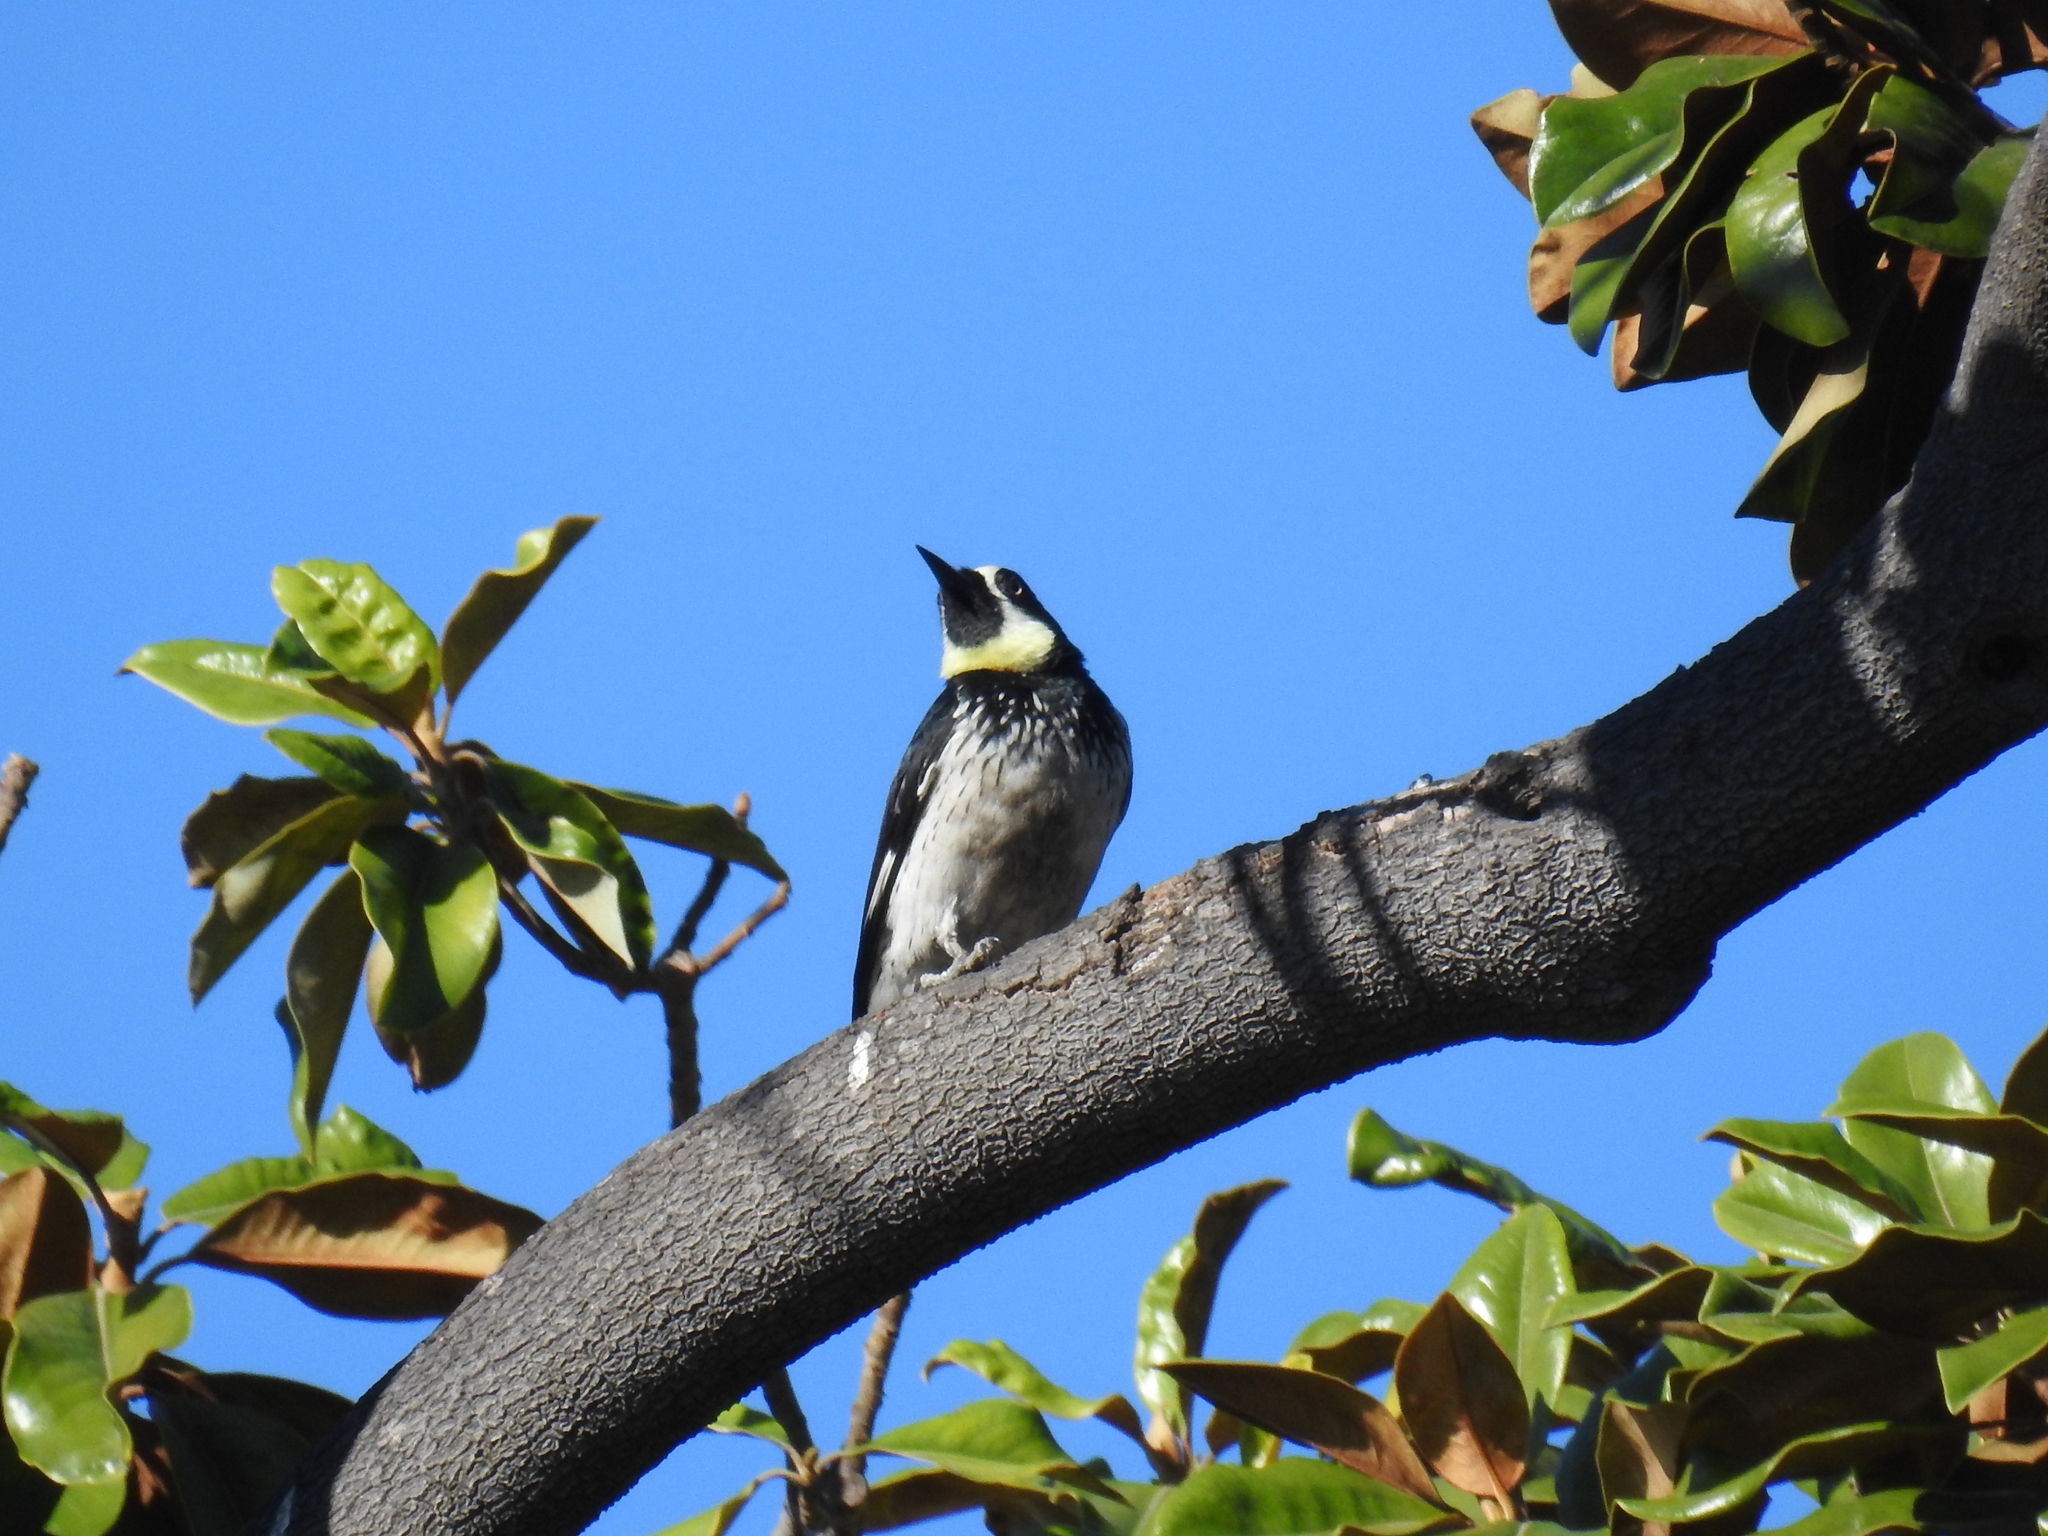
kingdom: Animalia
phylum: Chordata
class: Aves
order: Piciformes
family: Picidae
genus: Melanerpes
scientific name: Melanerpes formicivorus
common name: Acorn woodpecker
